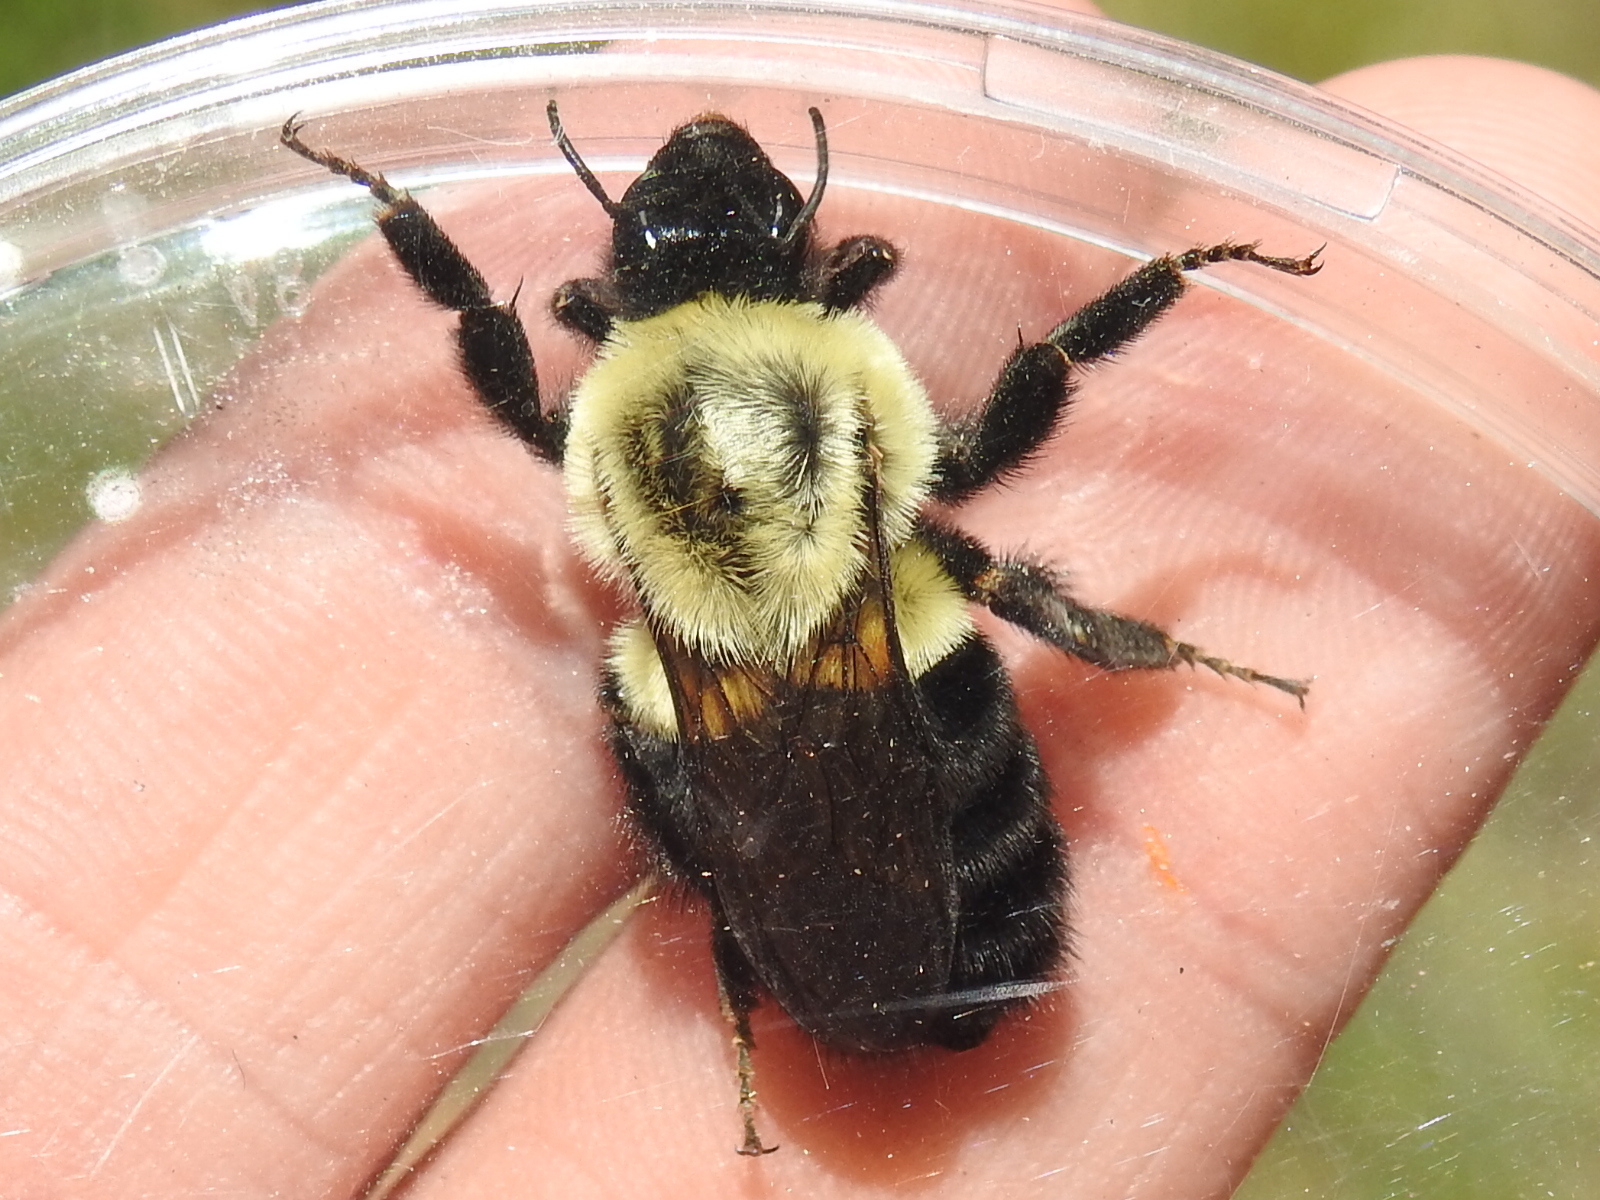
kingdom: Animalia
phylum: Arthropoda
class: Insecta
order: Hymenoptera
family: Apidae
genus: Bombus
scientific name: Bombus impatiens
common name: Common eastern bumble bee
